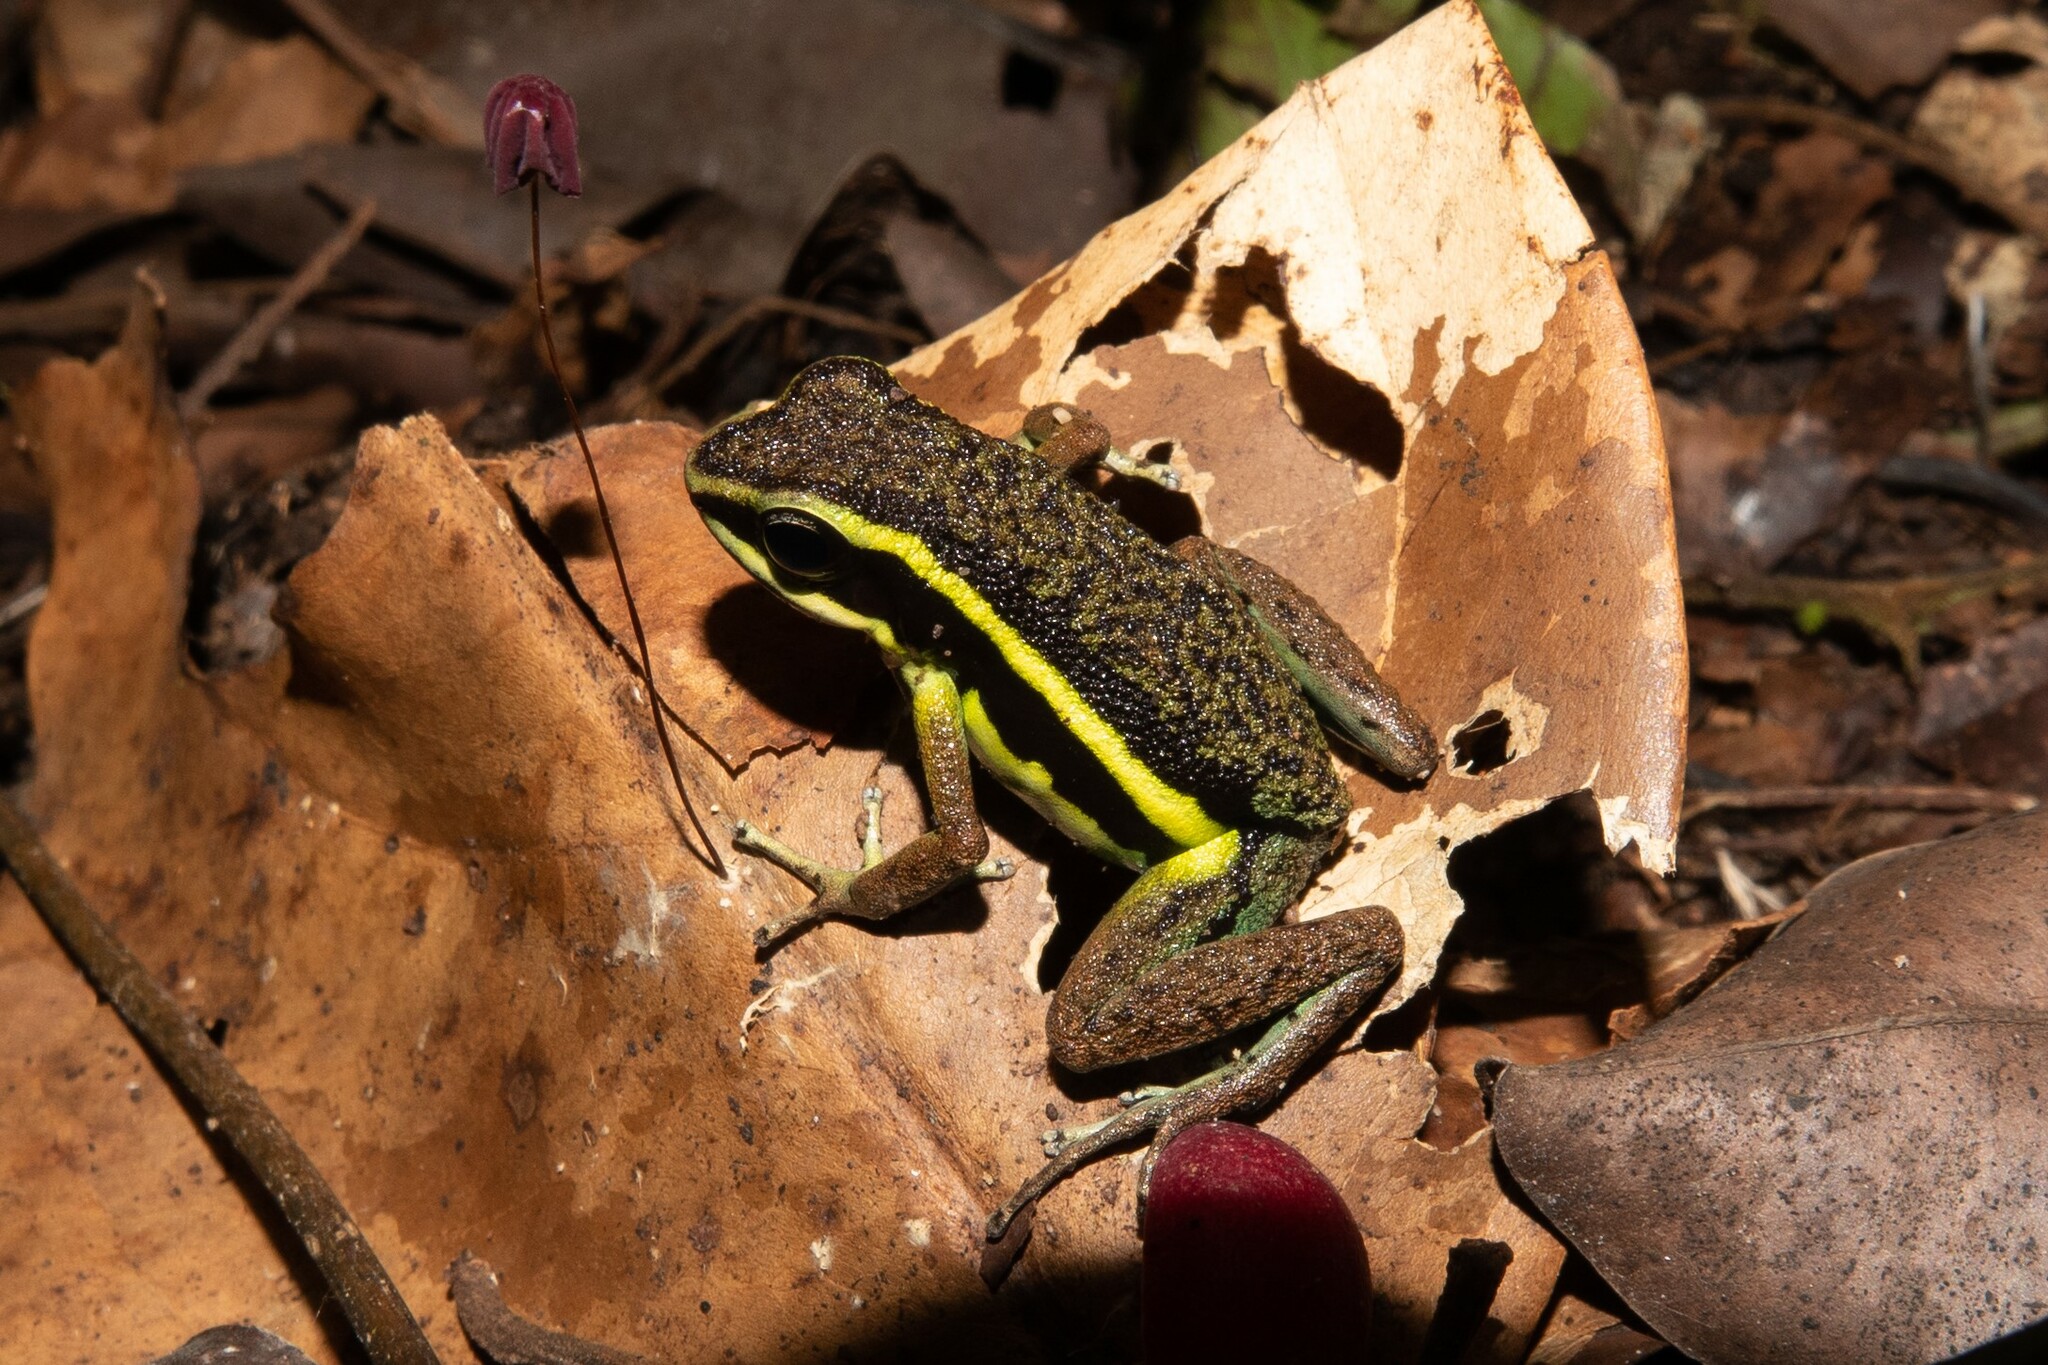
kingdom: Animalia
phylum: Chordata
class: Amphibia
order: Anura
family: Dendrobatidae
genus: Ameerega
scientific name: Ameerega petersi
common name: Peru poison frog
